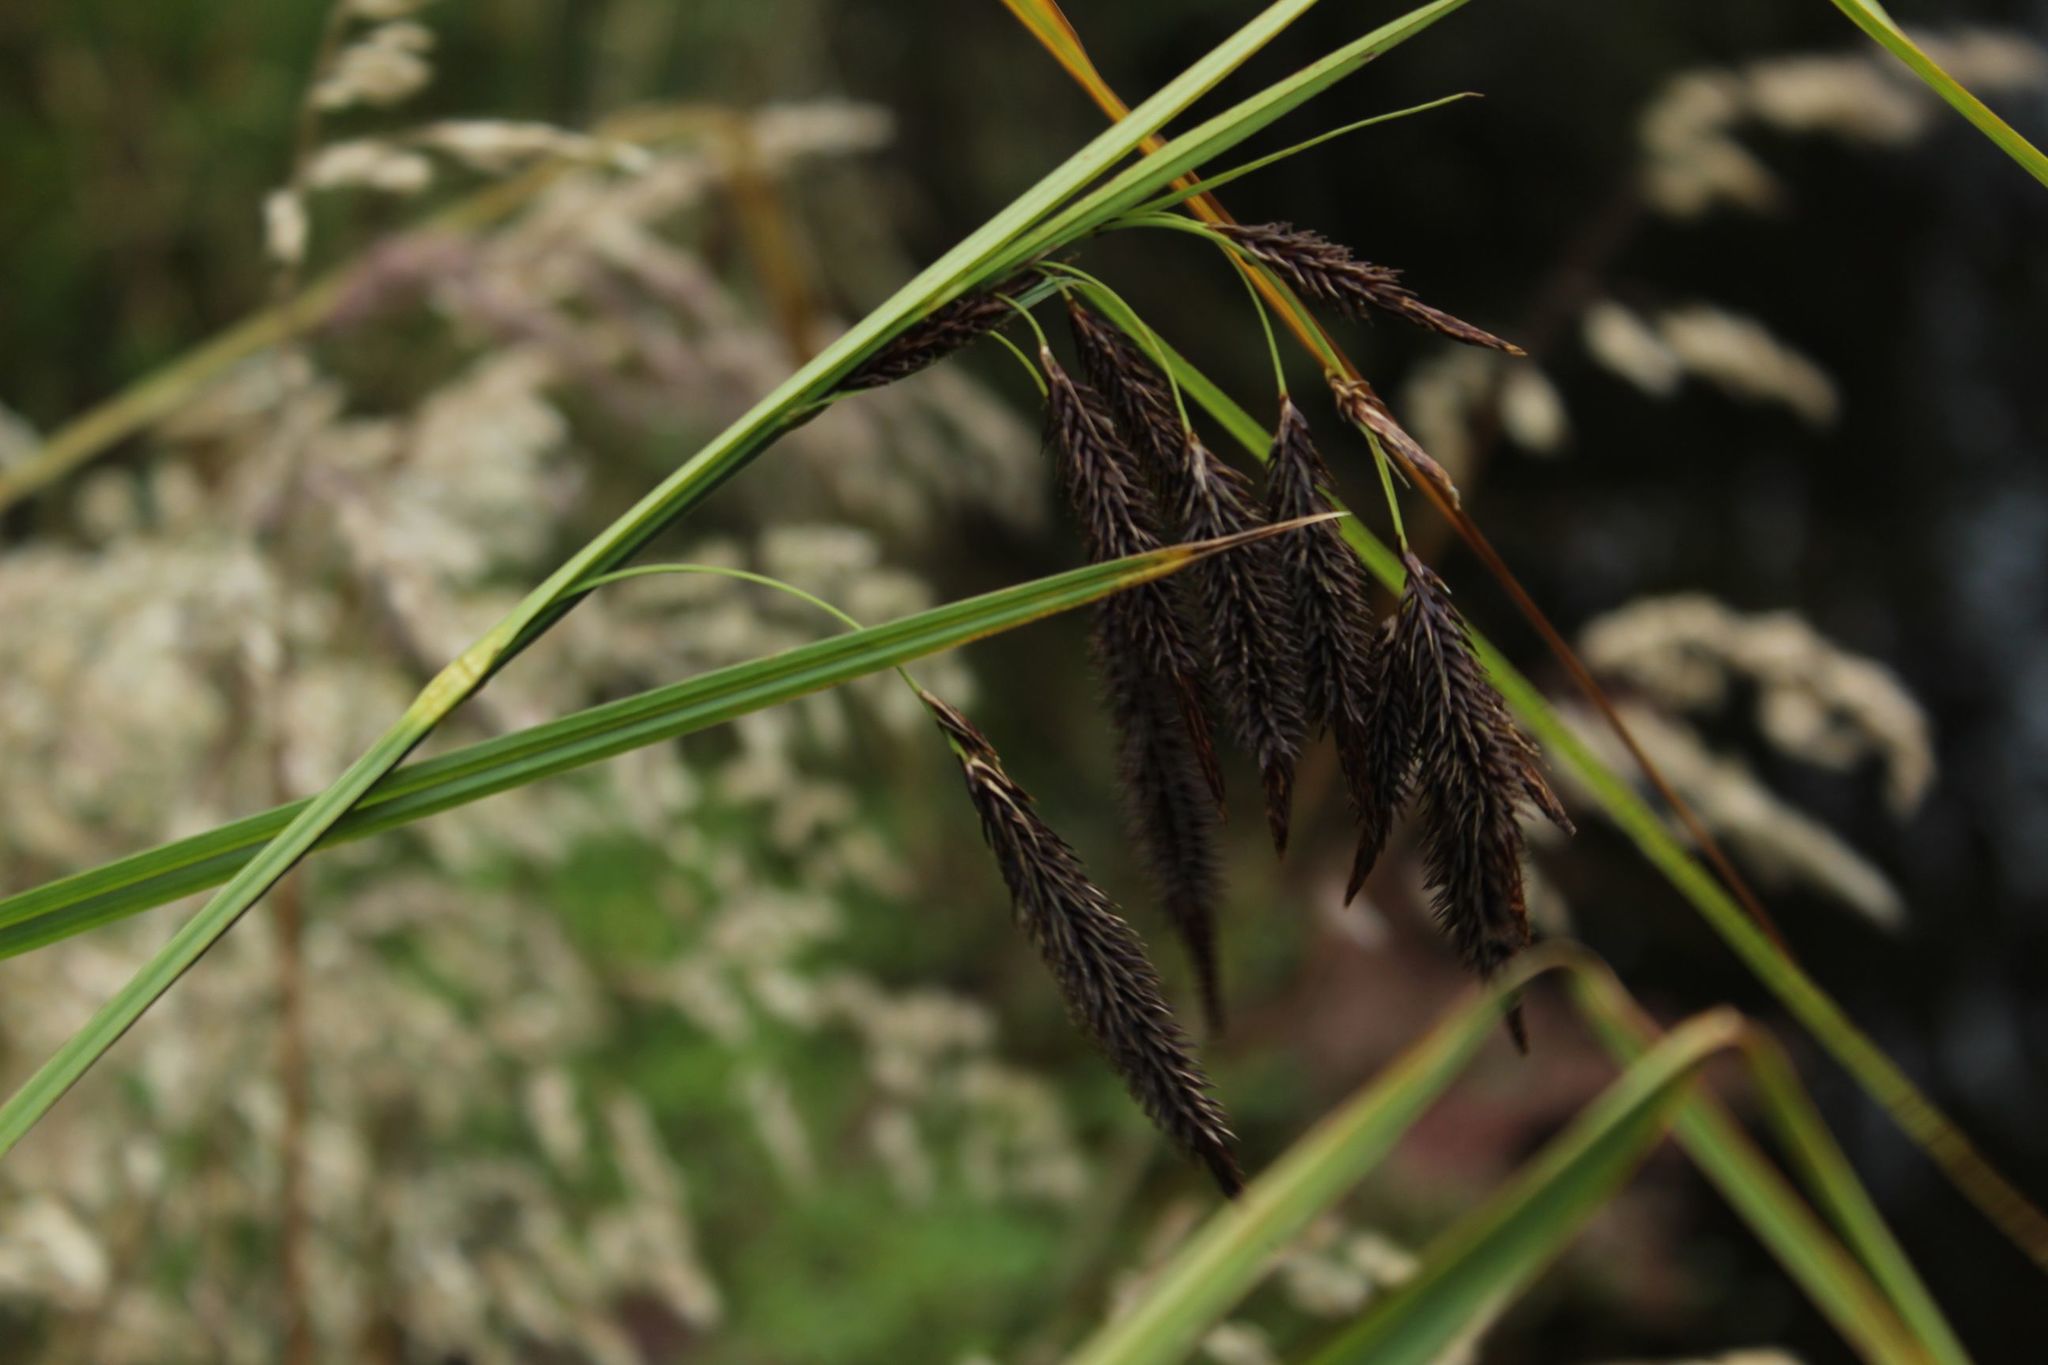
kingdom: Plantae
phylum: Tracheophyta
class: Liliopsida
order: Poales
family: Cyperaceae
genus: Carex
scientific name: Carex pichinchensis
